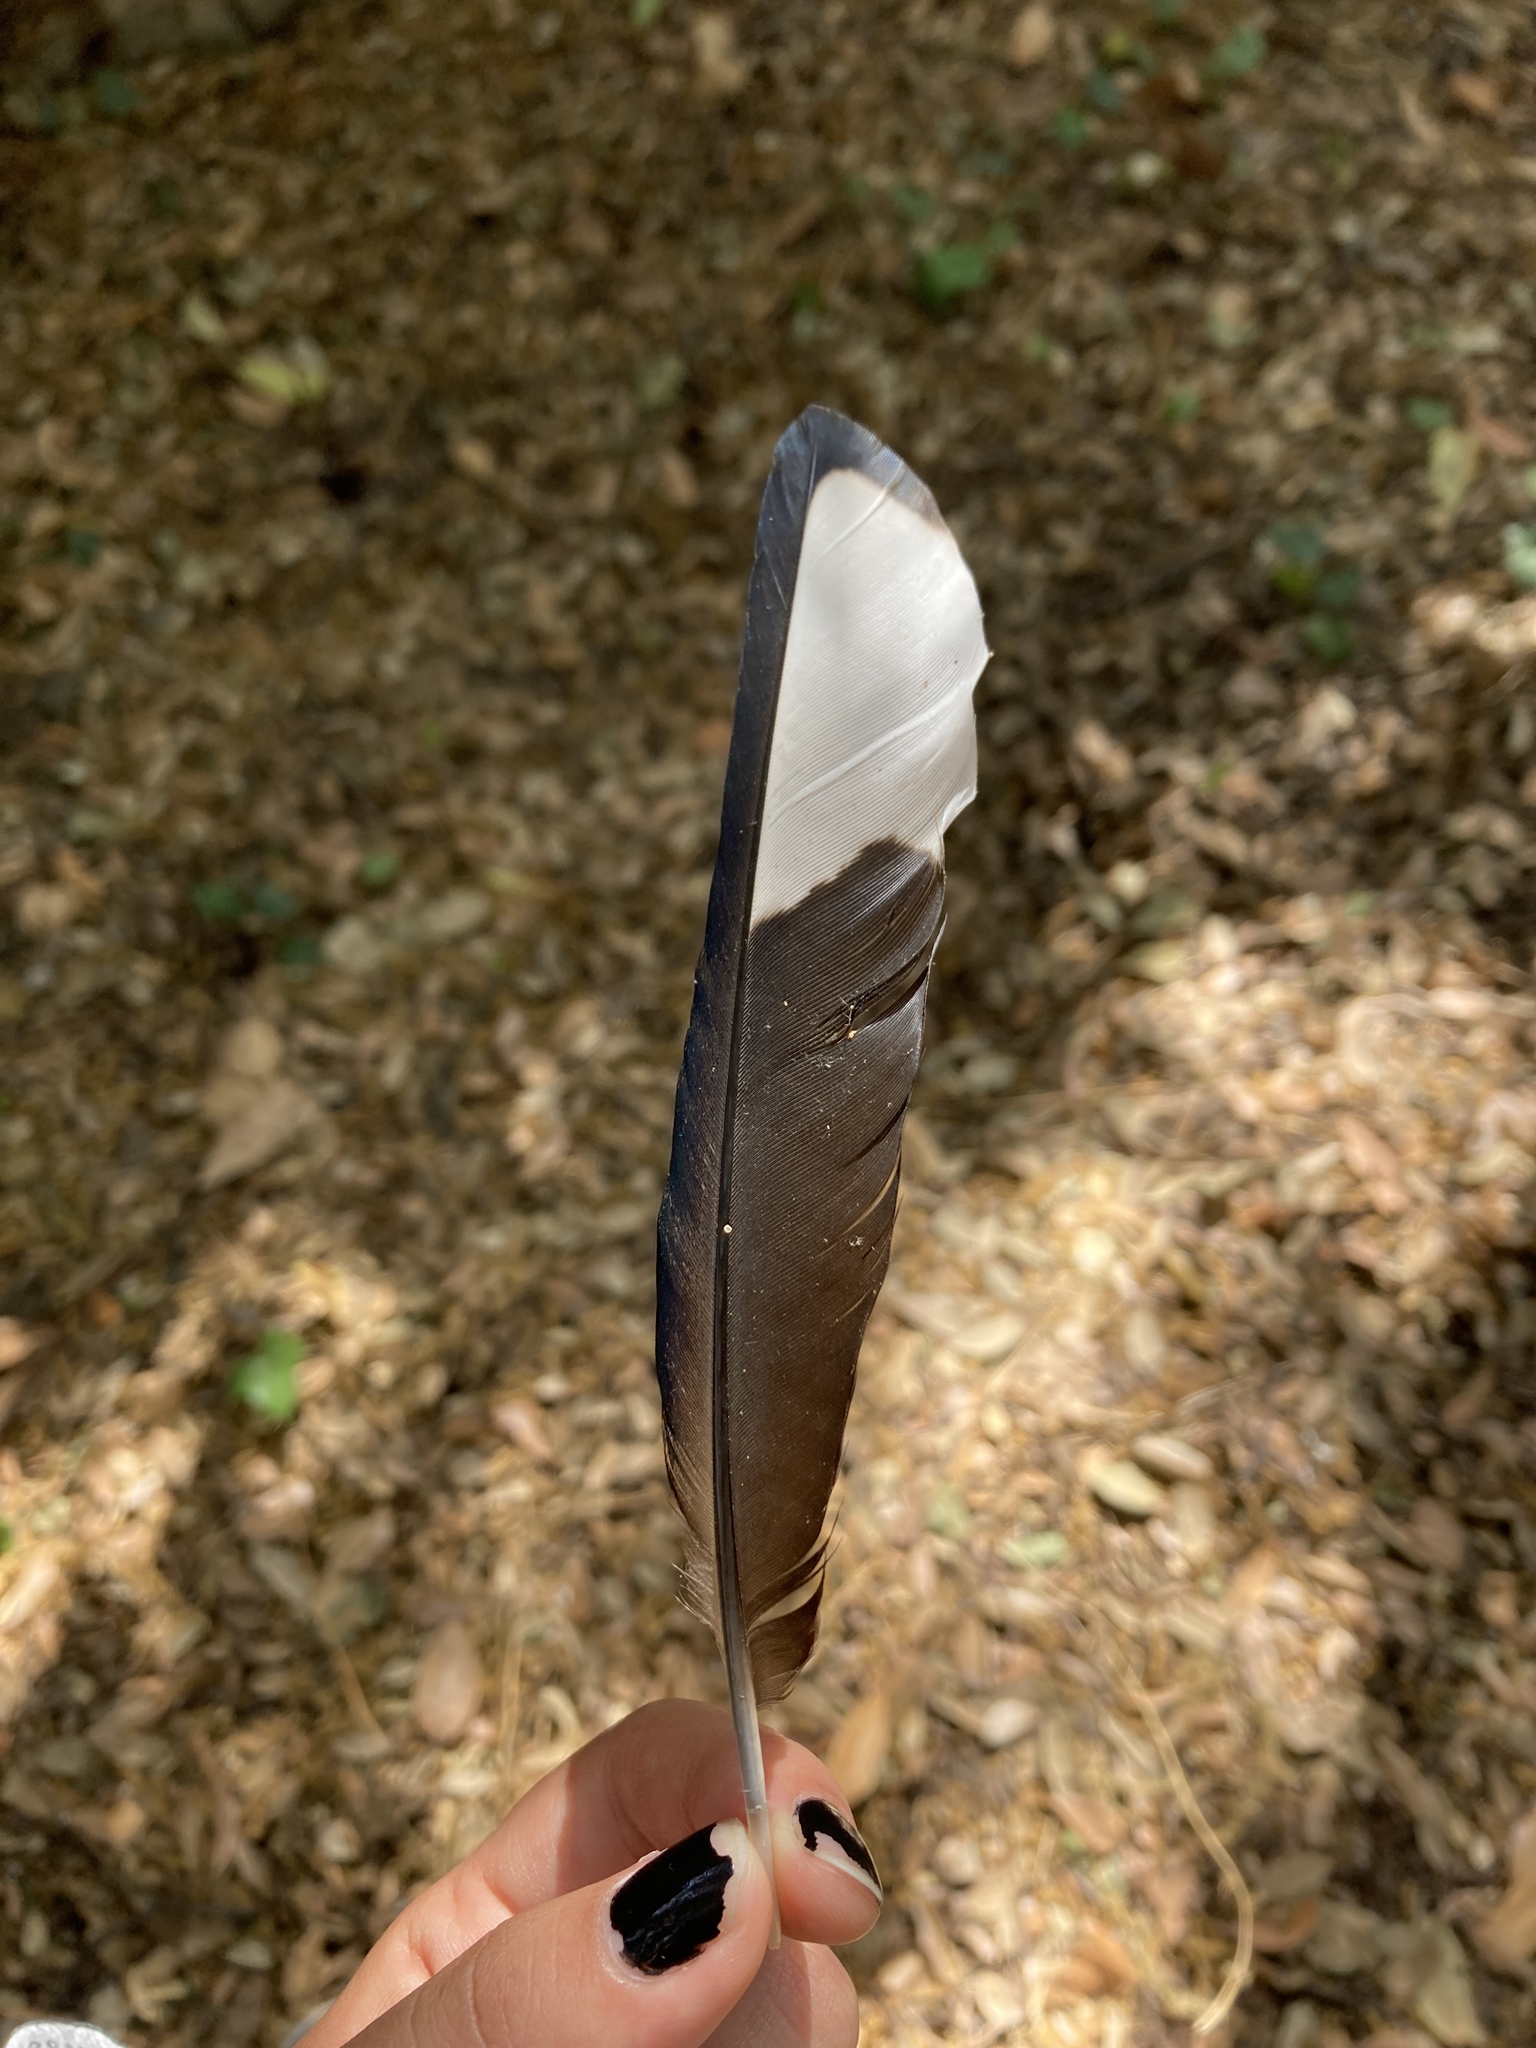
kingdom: Animalia
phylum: Chordata
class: Aves
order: Passeriformes
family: Corvidae
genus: Pica
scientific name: Pica pica
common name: Eurasian magpie
